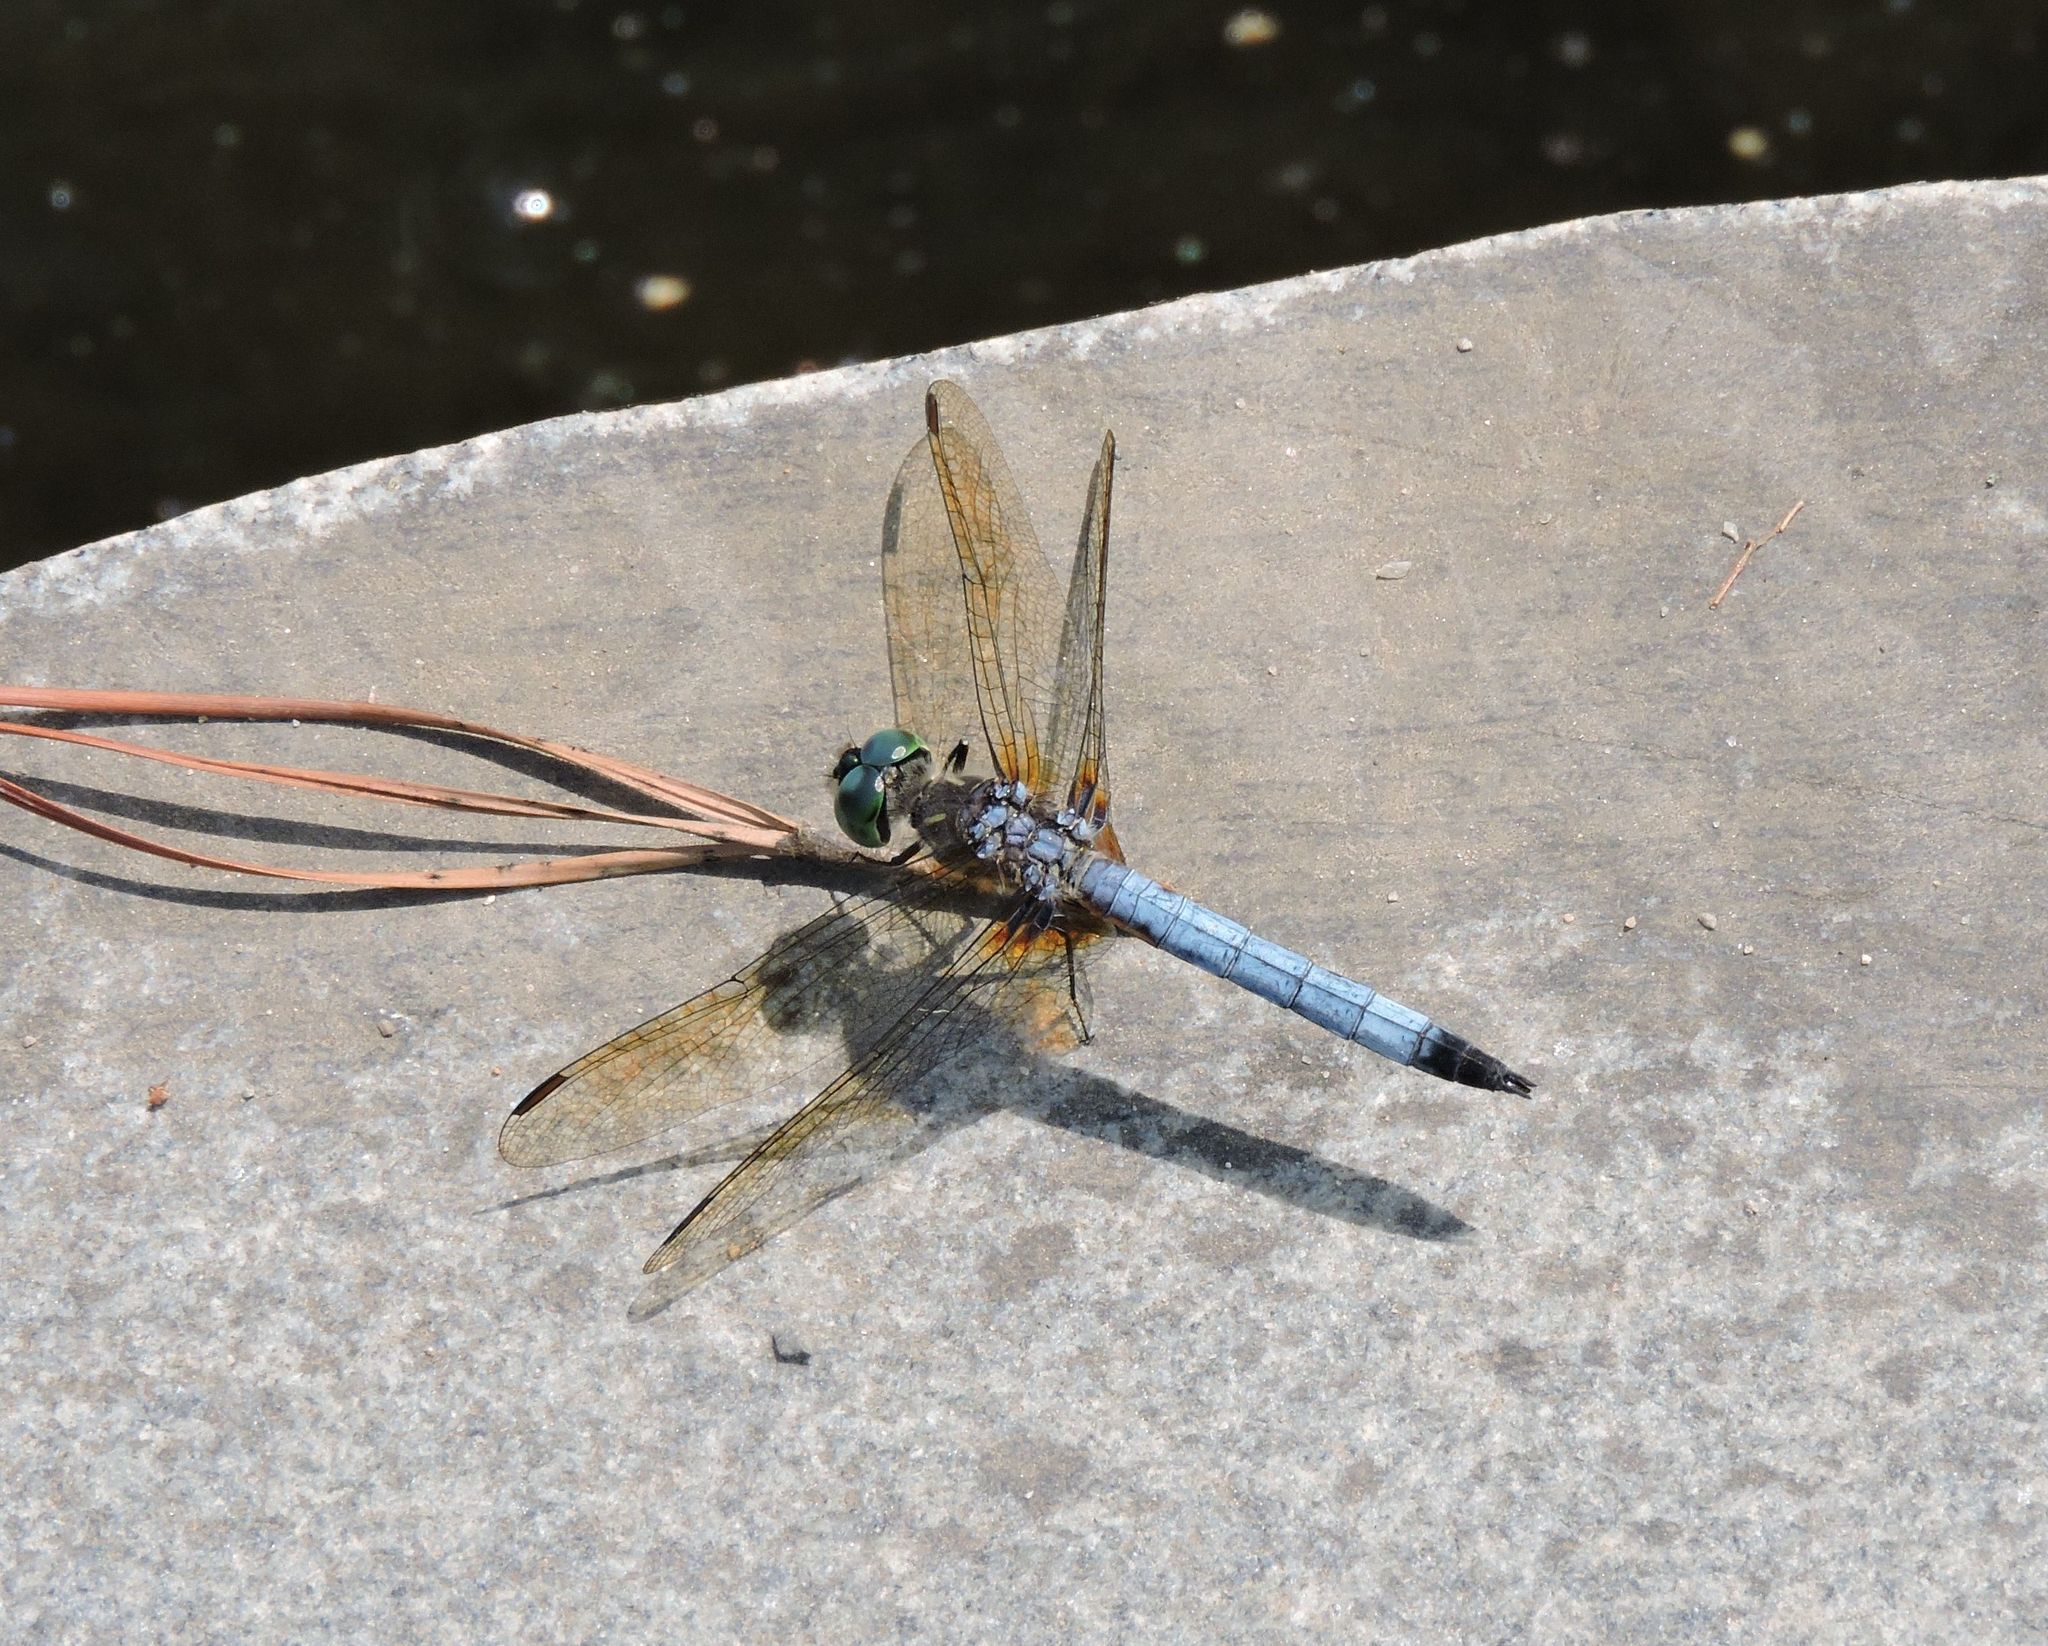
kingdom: Animalia
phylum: Arthropoda
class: Insecta
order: Odonata
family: Libellulidae
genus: Pachydiplax
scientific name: Pachydiplax longipennis
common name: Blue dasher
